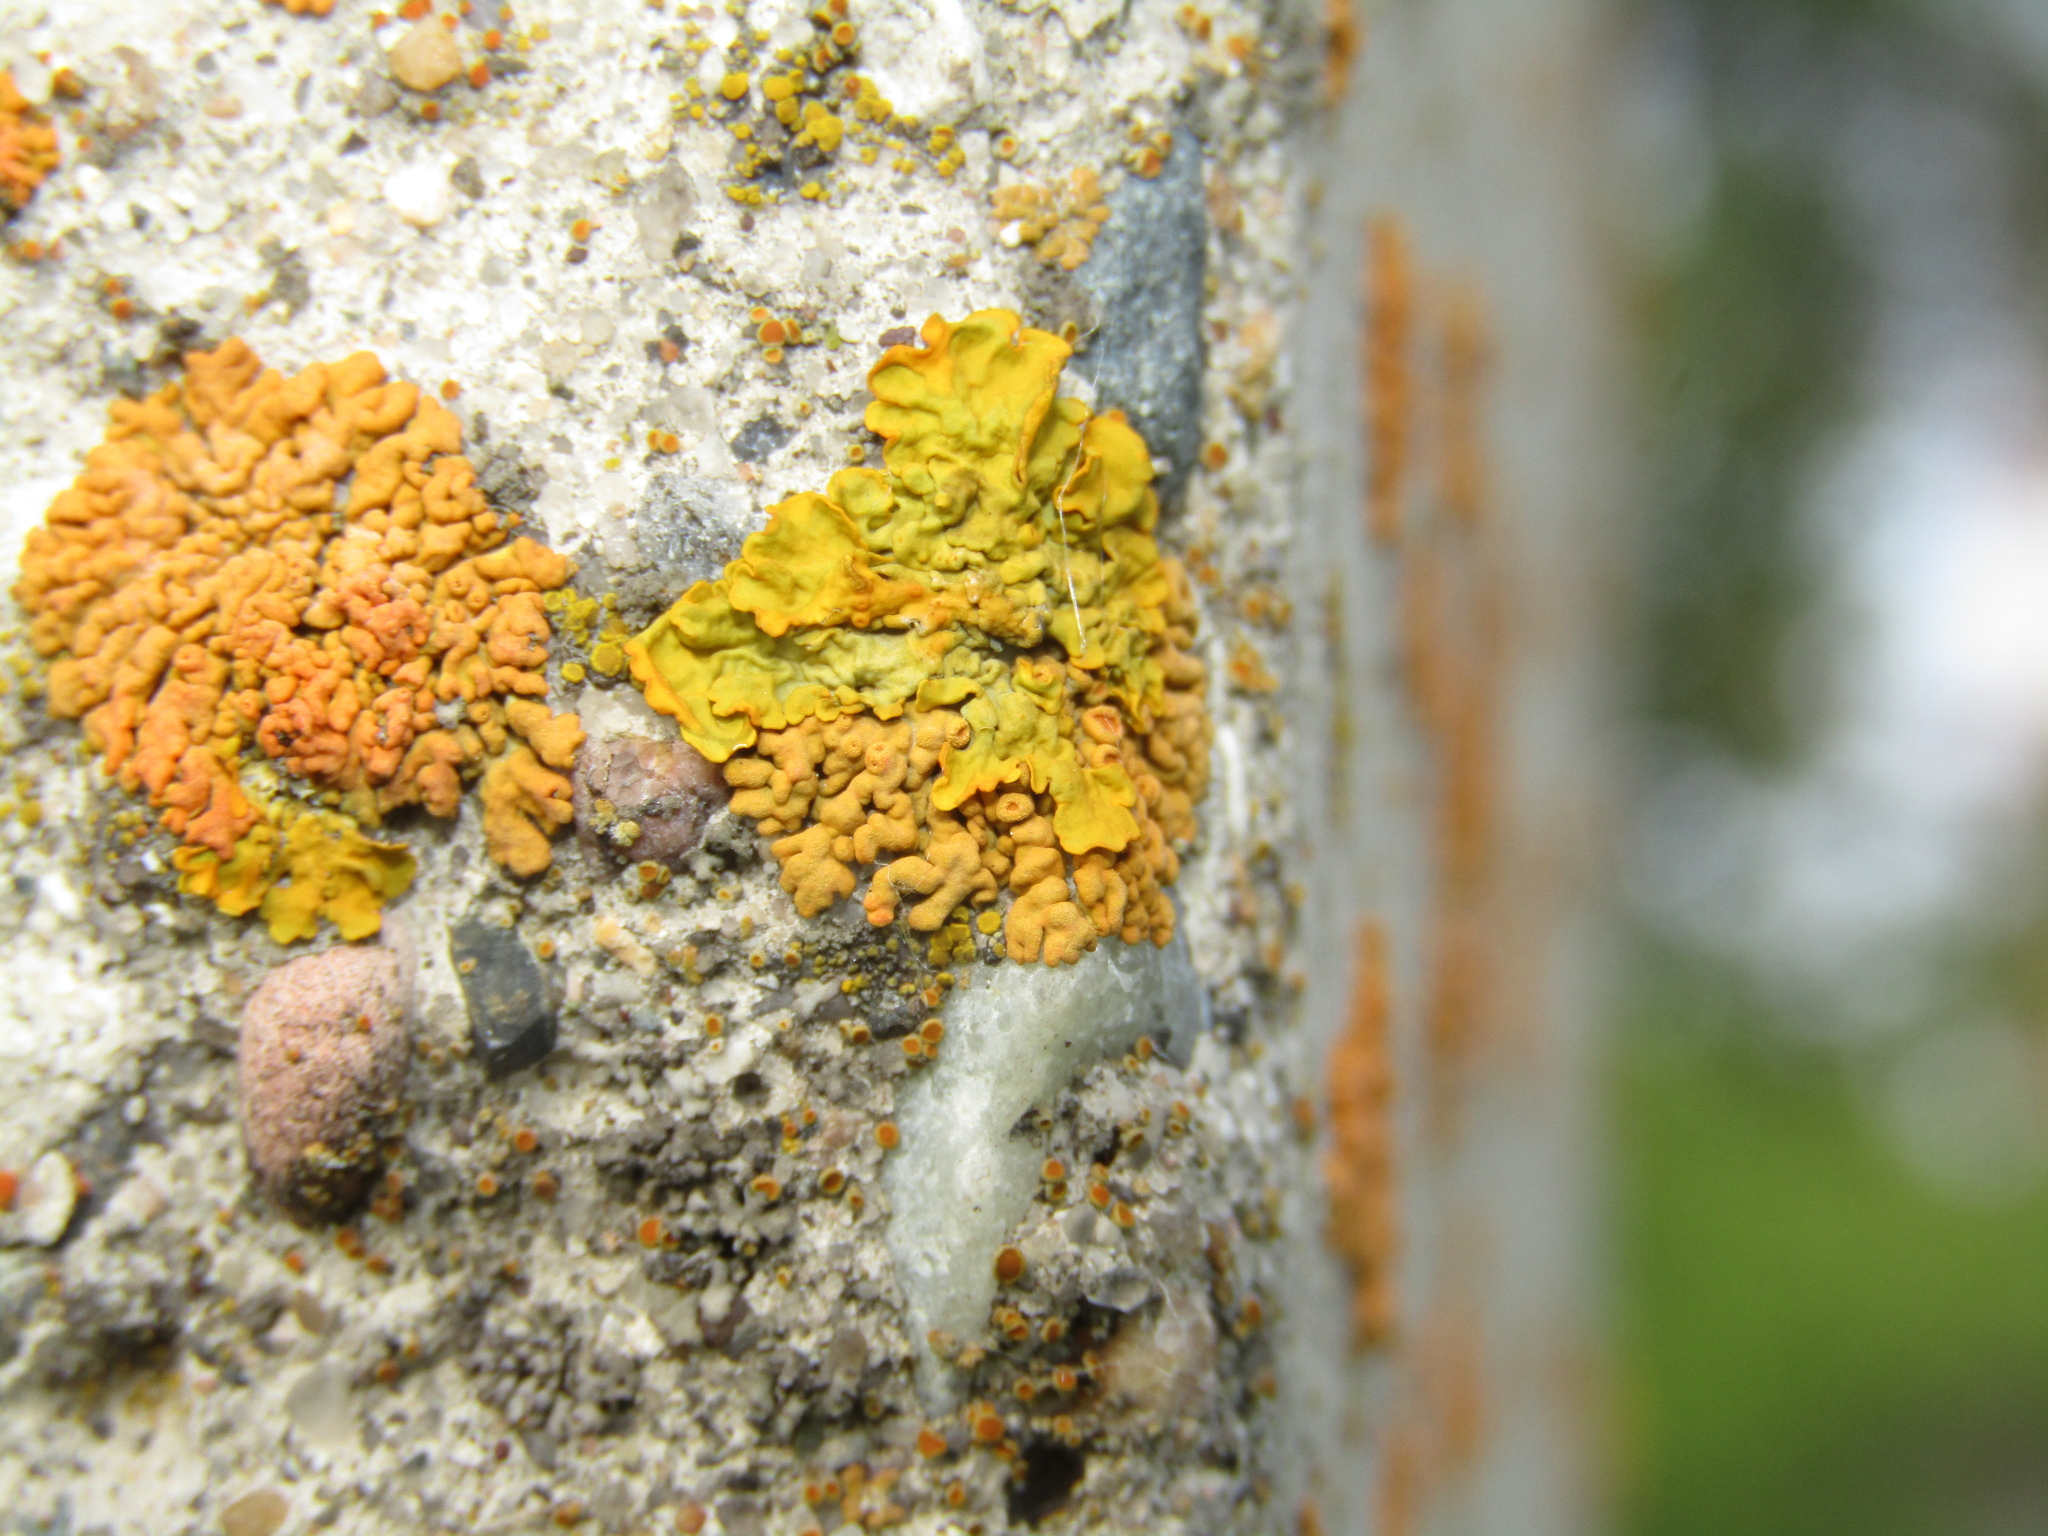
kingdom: Fungi
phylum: Ascomycota
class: Lecanoromycetes
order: Teloschistales
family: Teloschistaceae
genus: Xanthoria
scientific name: Xanthoria parietina
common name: Common orange lichen
